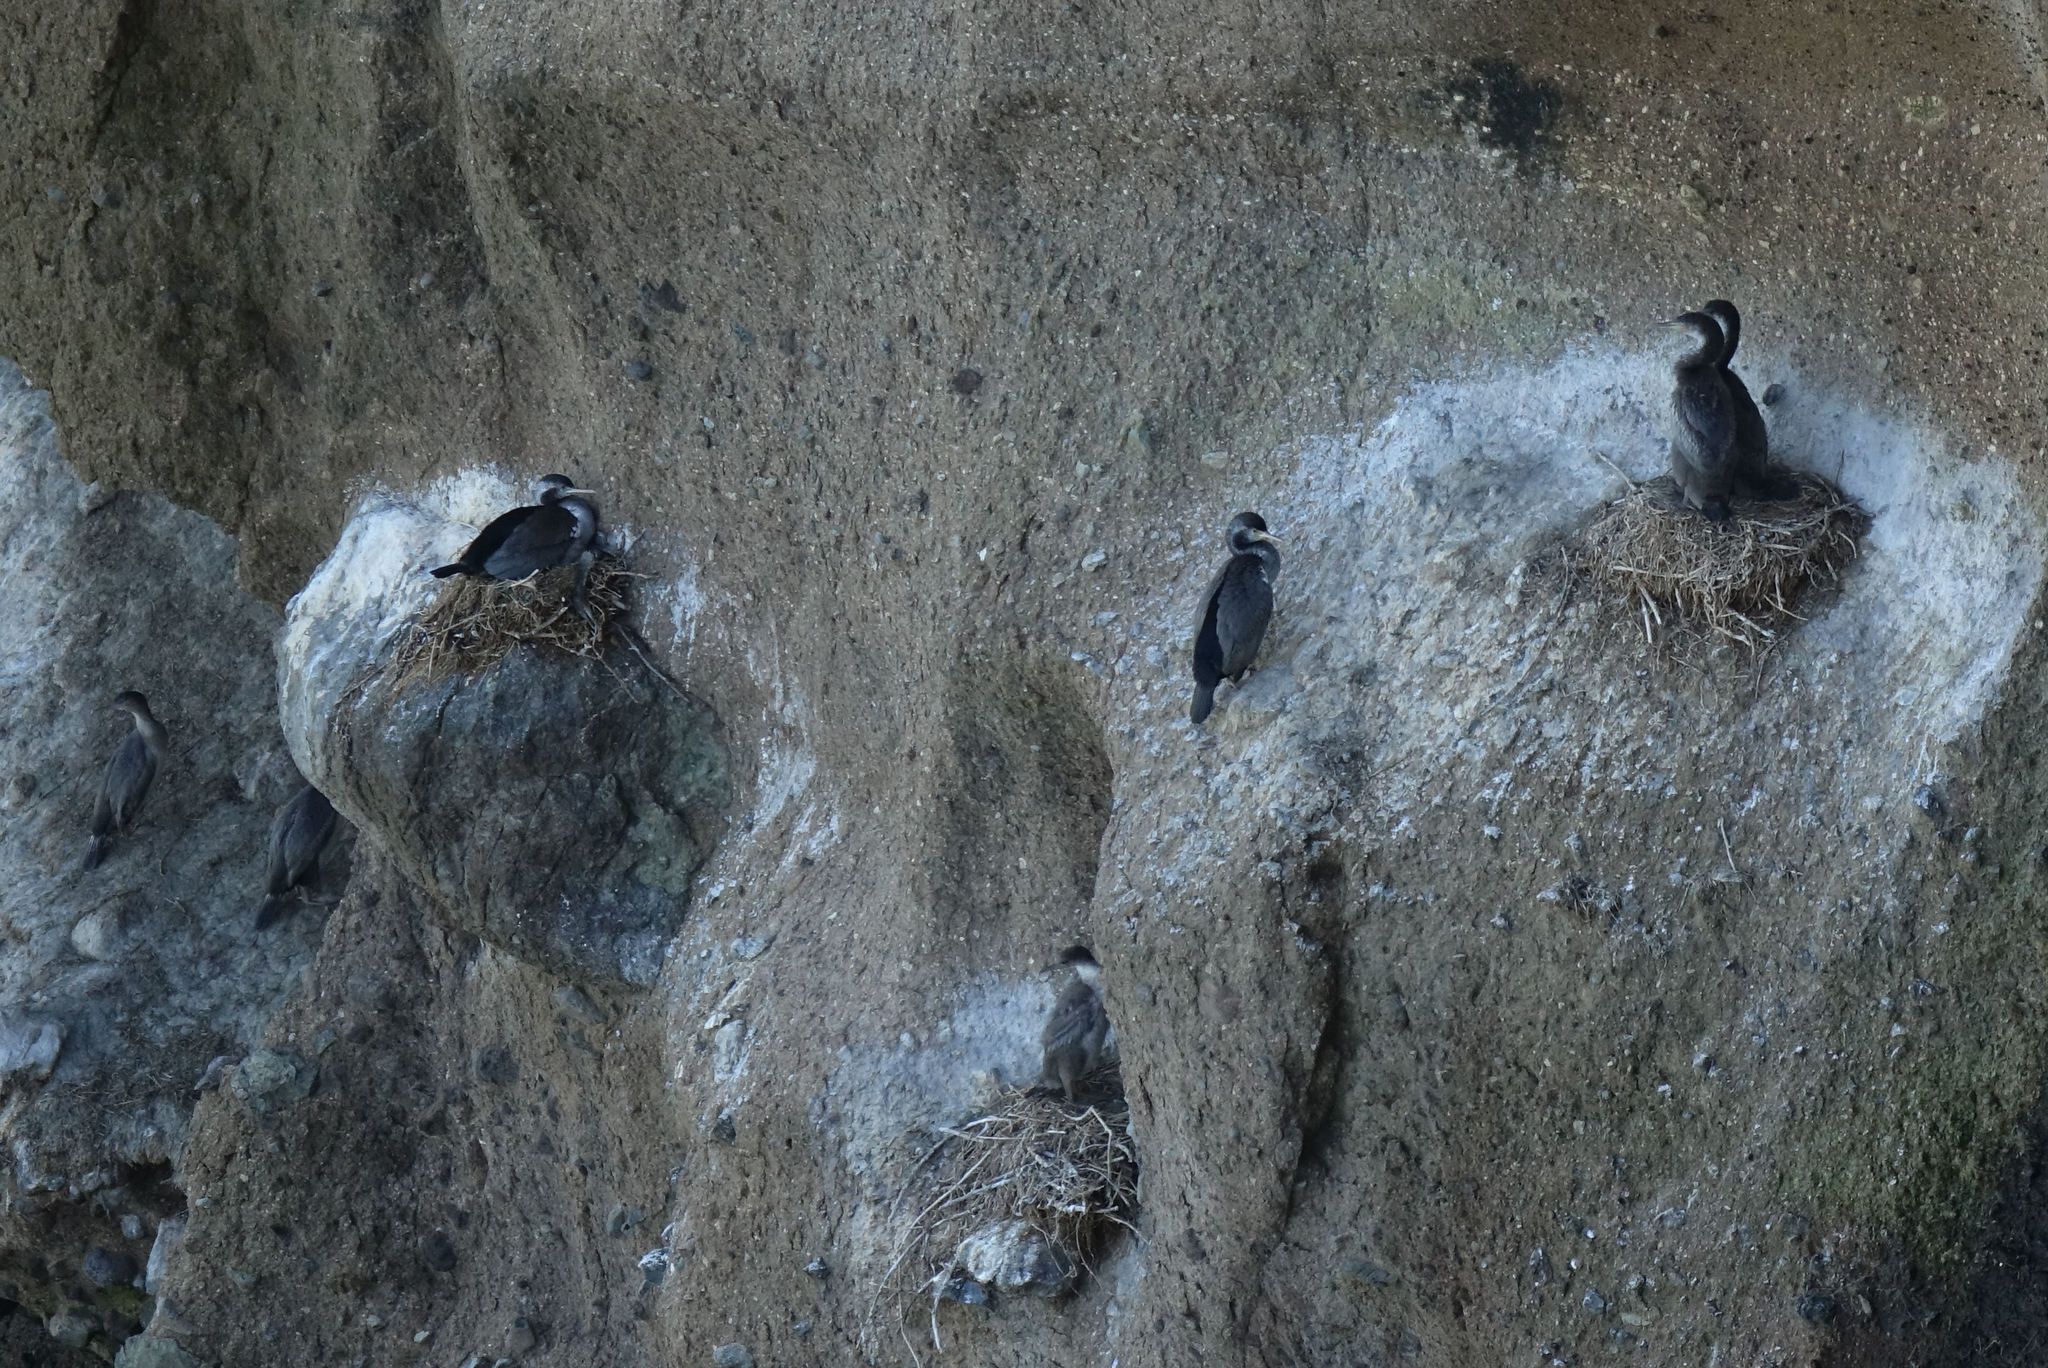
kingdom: Animalia
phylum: Chordata
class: Aves
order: Suliformes
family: Phalacrocoracidae
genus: Phalacrocorax
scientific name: Phalacrocorax punctatus
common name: Spotted shag
